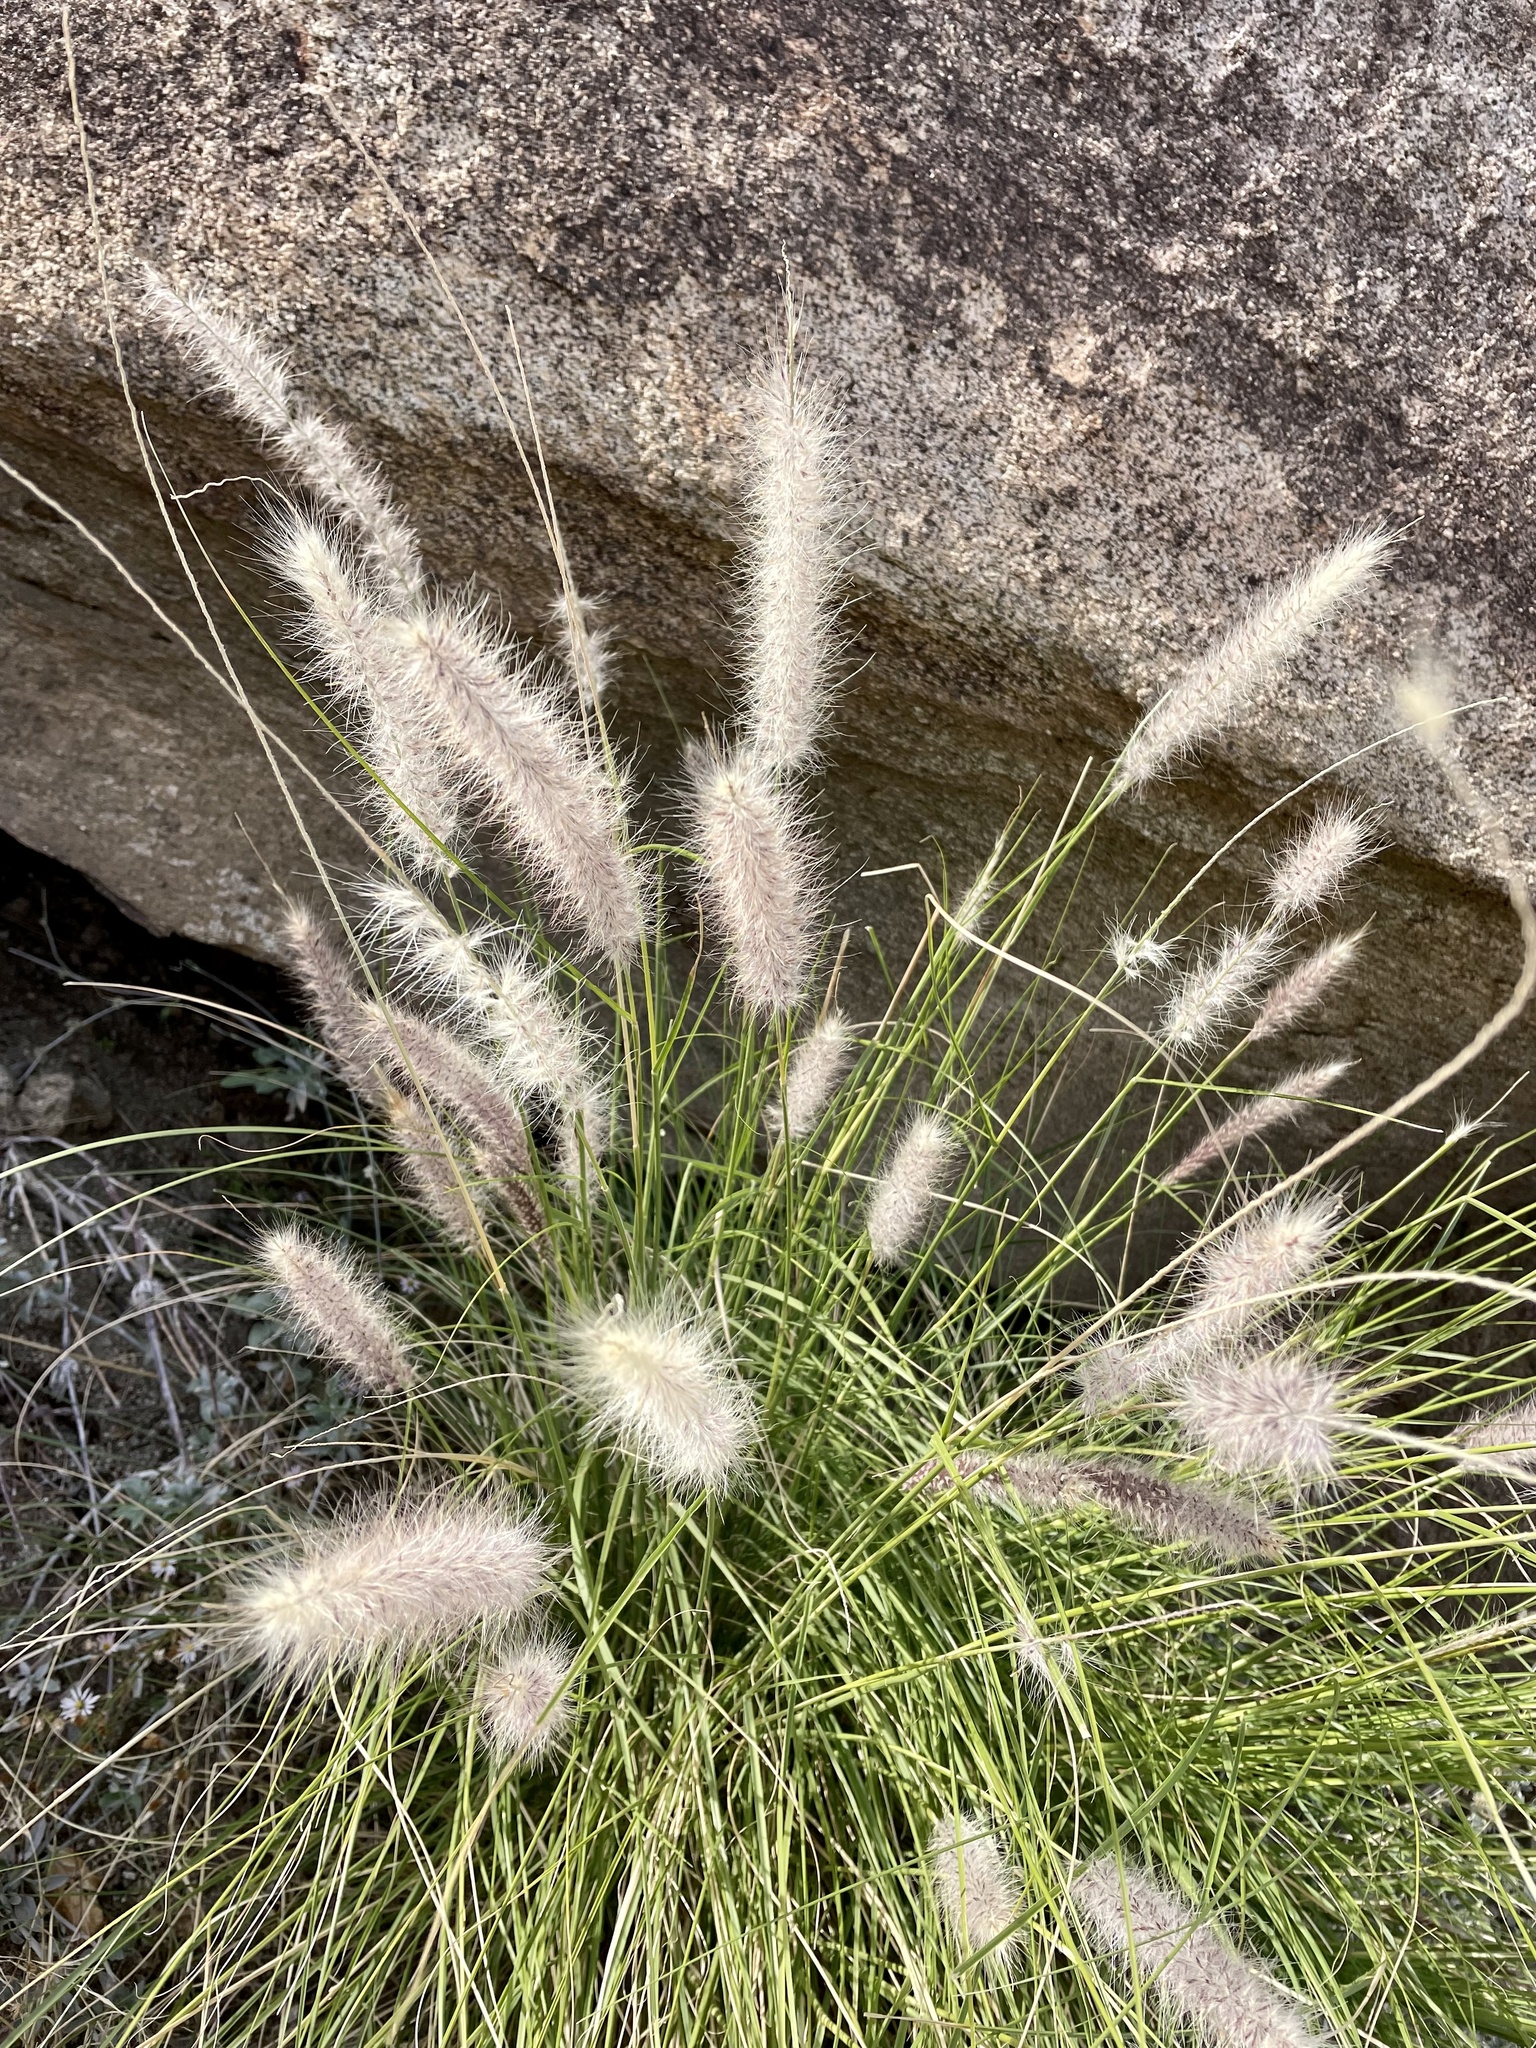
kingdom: Plantae
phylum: Tracheophyta
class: Liliopsida
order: Poales
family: Poaceae
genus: Cenchrus
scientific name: Cenchrus setaceus
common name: Crimson fountaingrass
